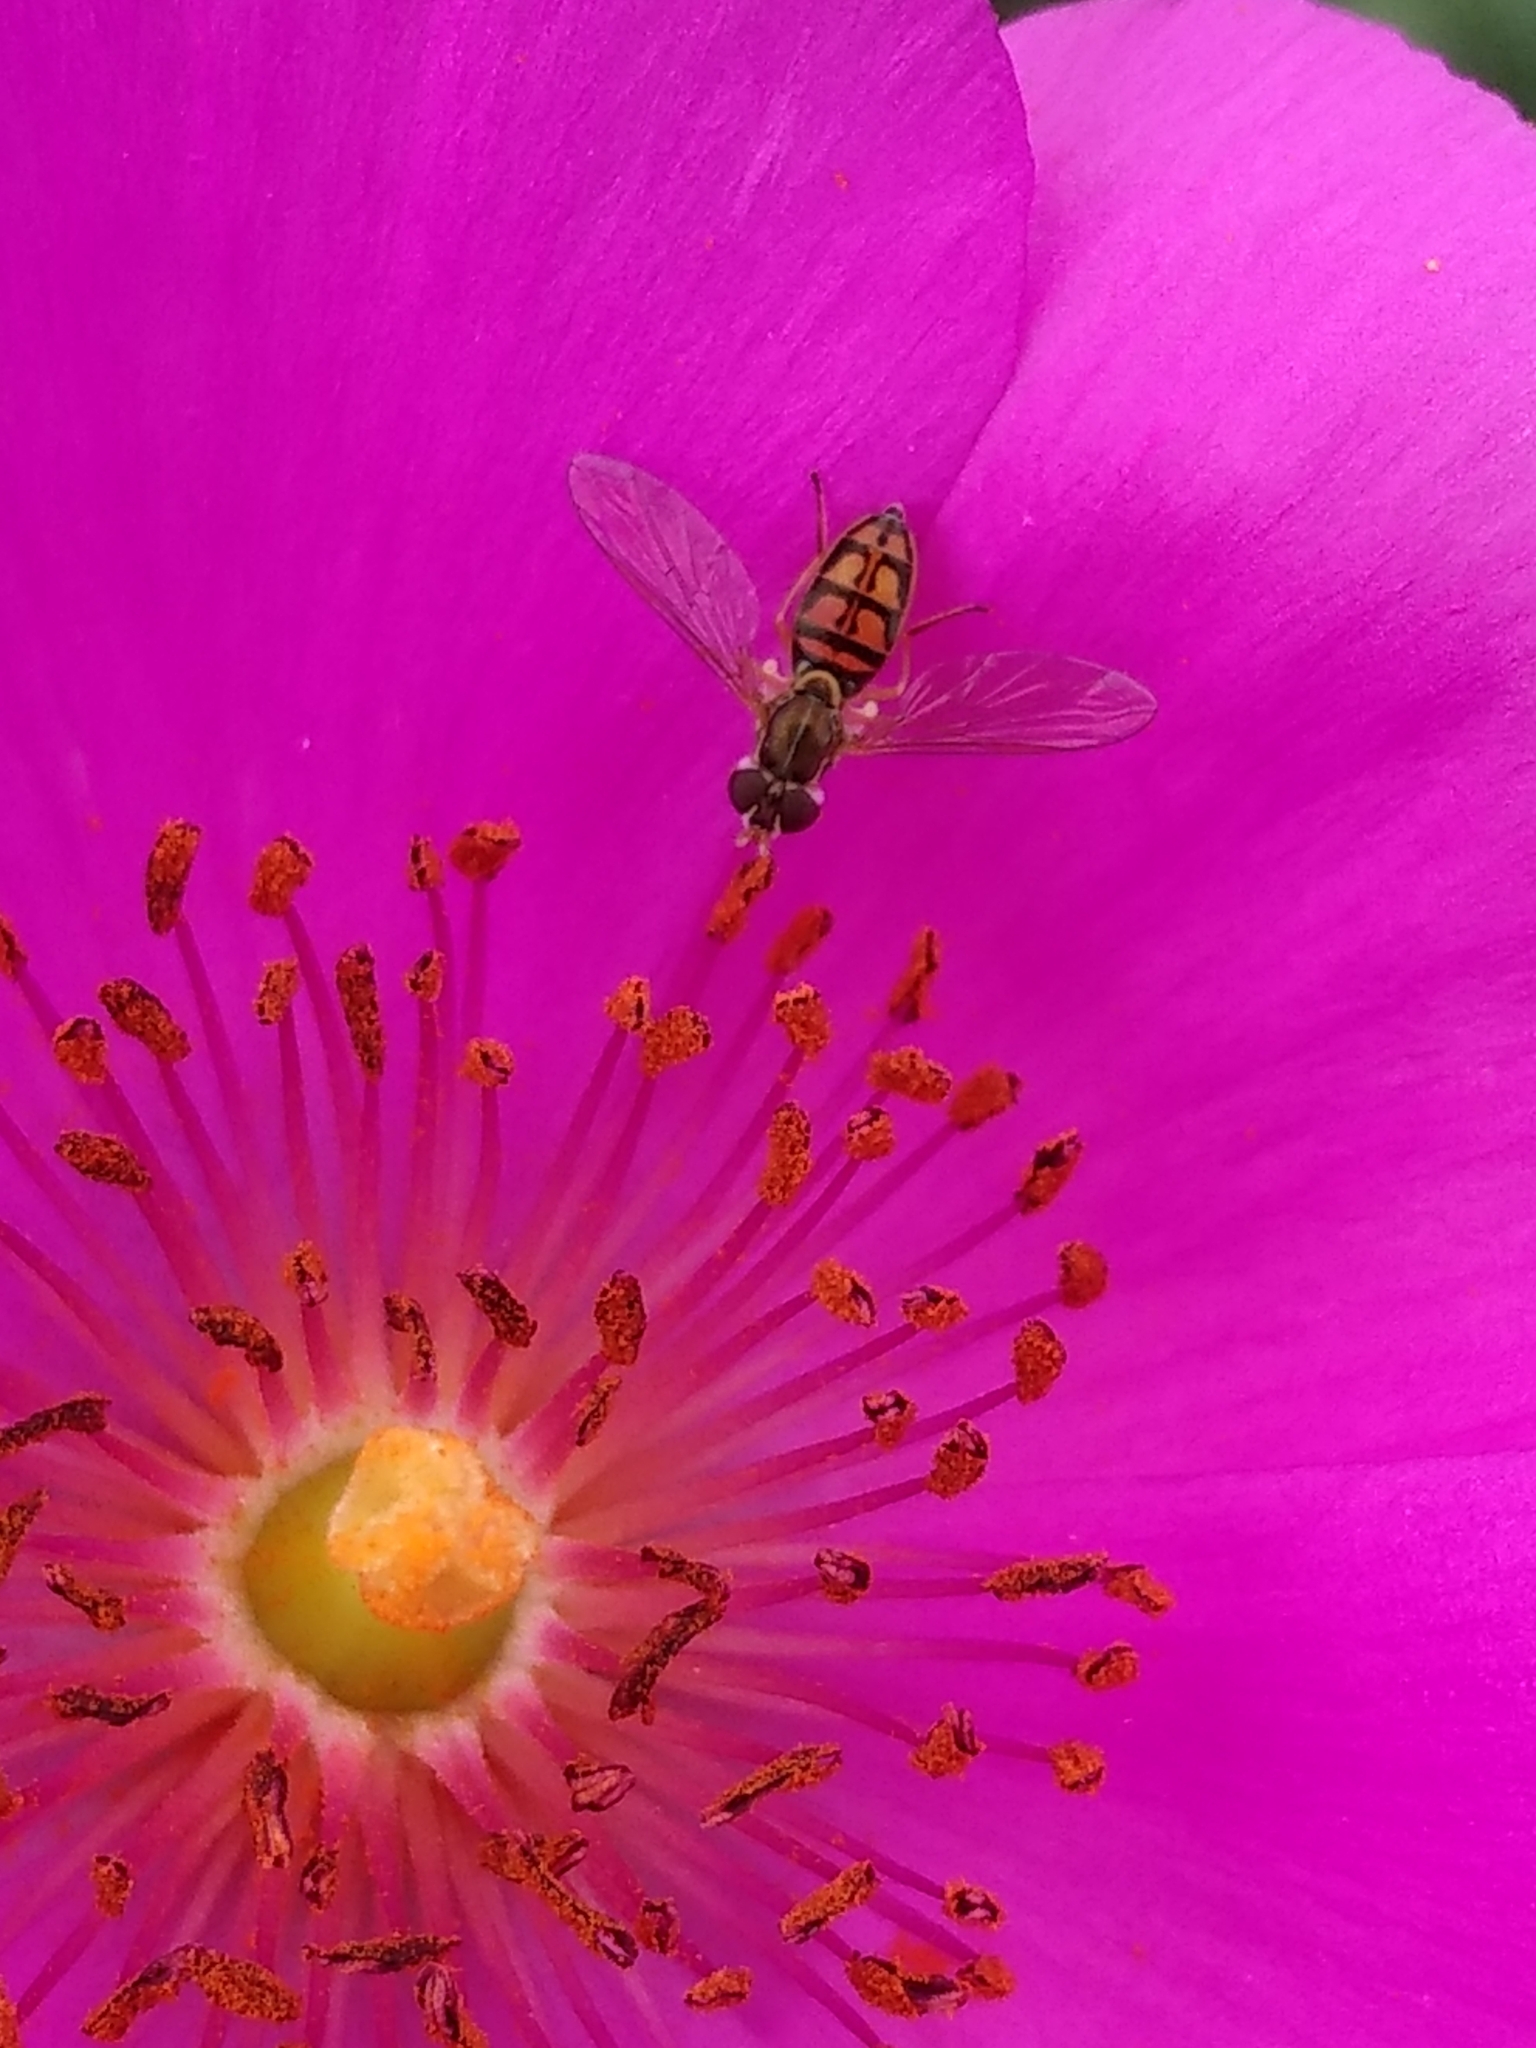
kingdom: Animalia
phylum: Arthropoda
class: Insecta
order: Diptera
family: Syrphidae
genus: Toxomerus
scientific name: Toxomerus marginatus
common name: Syrphid fly
